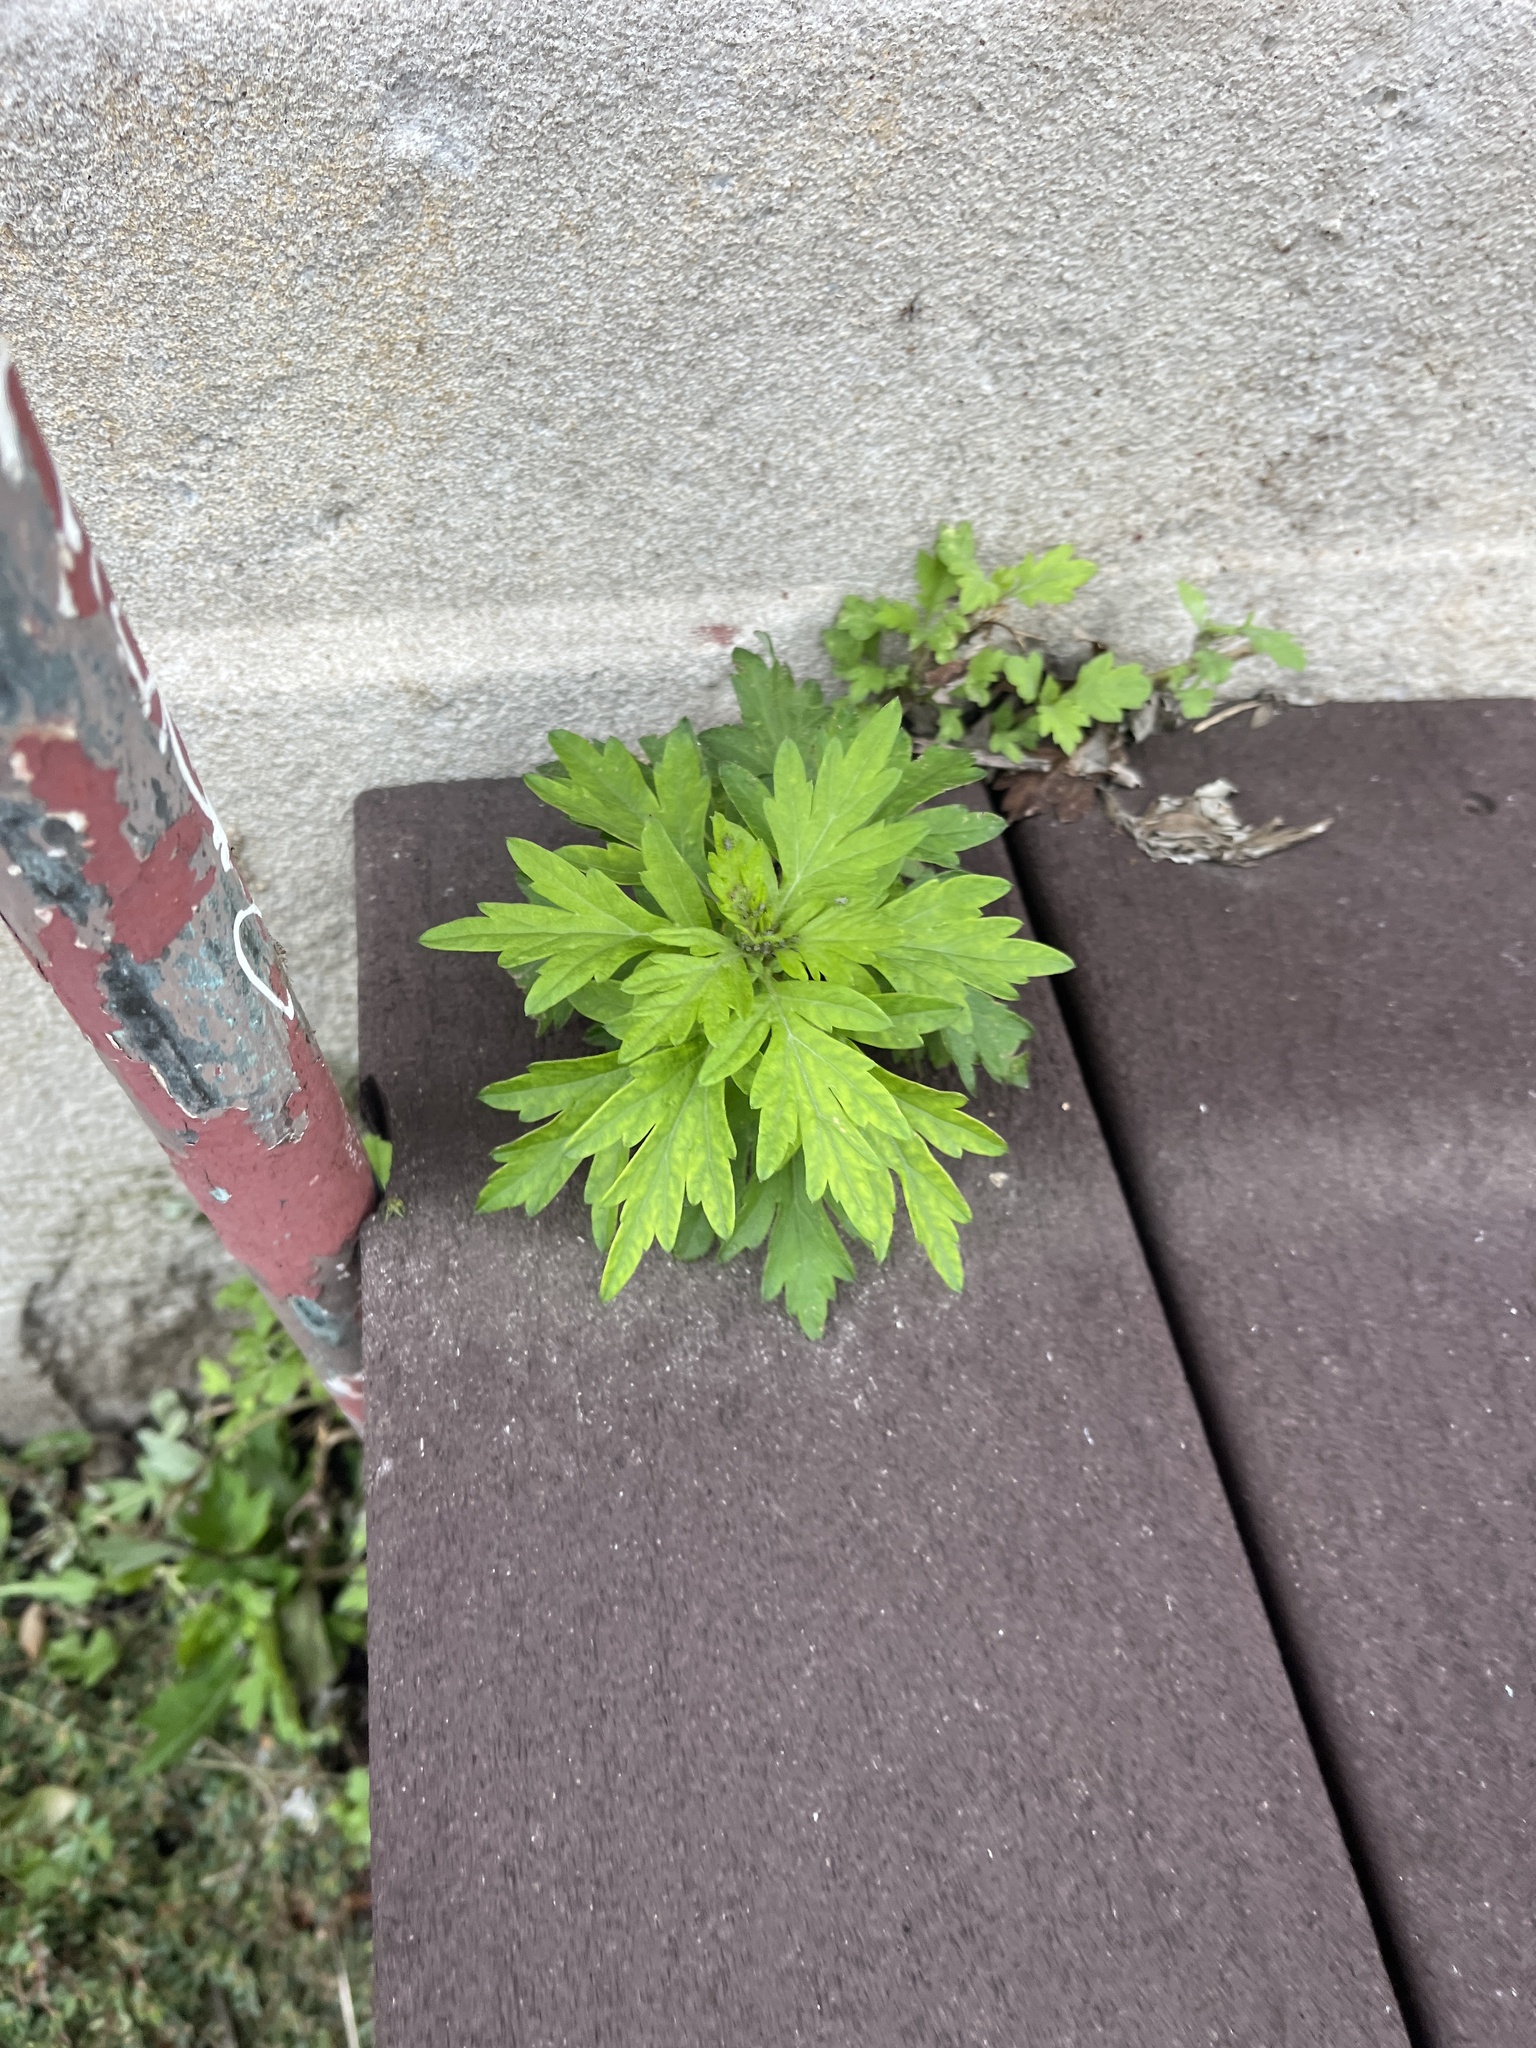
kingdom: Plantae
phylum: Tracheophyta
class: Magnoliopsida
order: Asterales
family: Asteraceae
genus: Artemisia
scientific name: Artemisia vulgaris
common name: Mugwort
